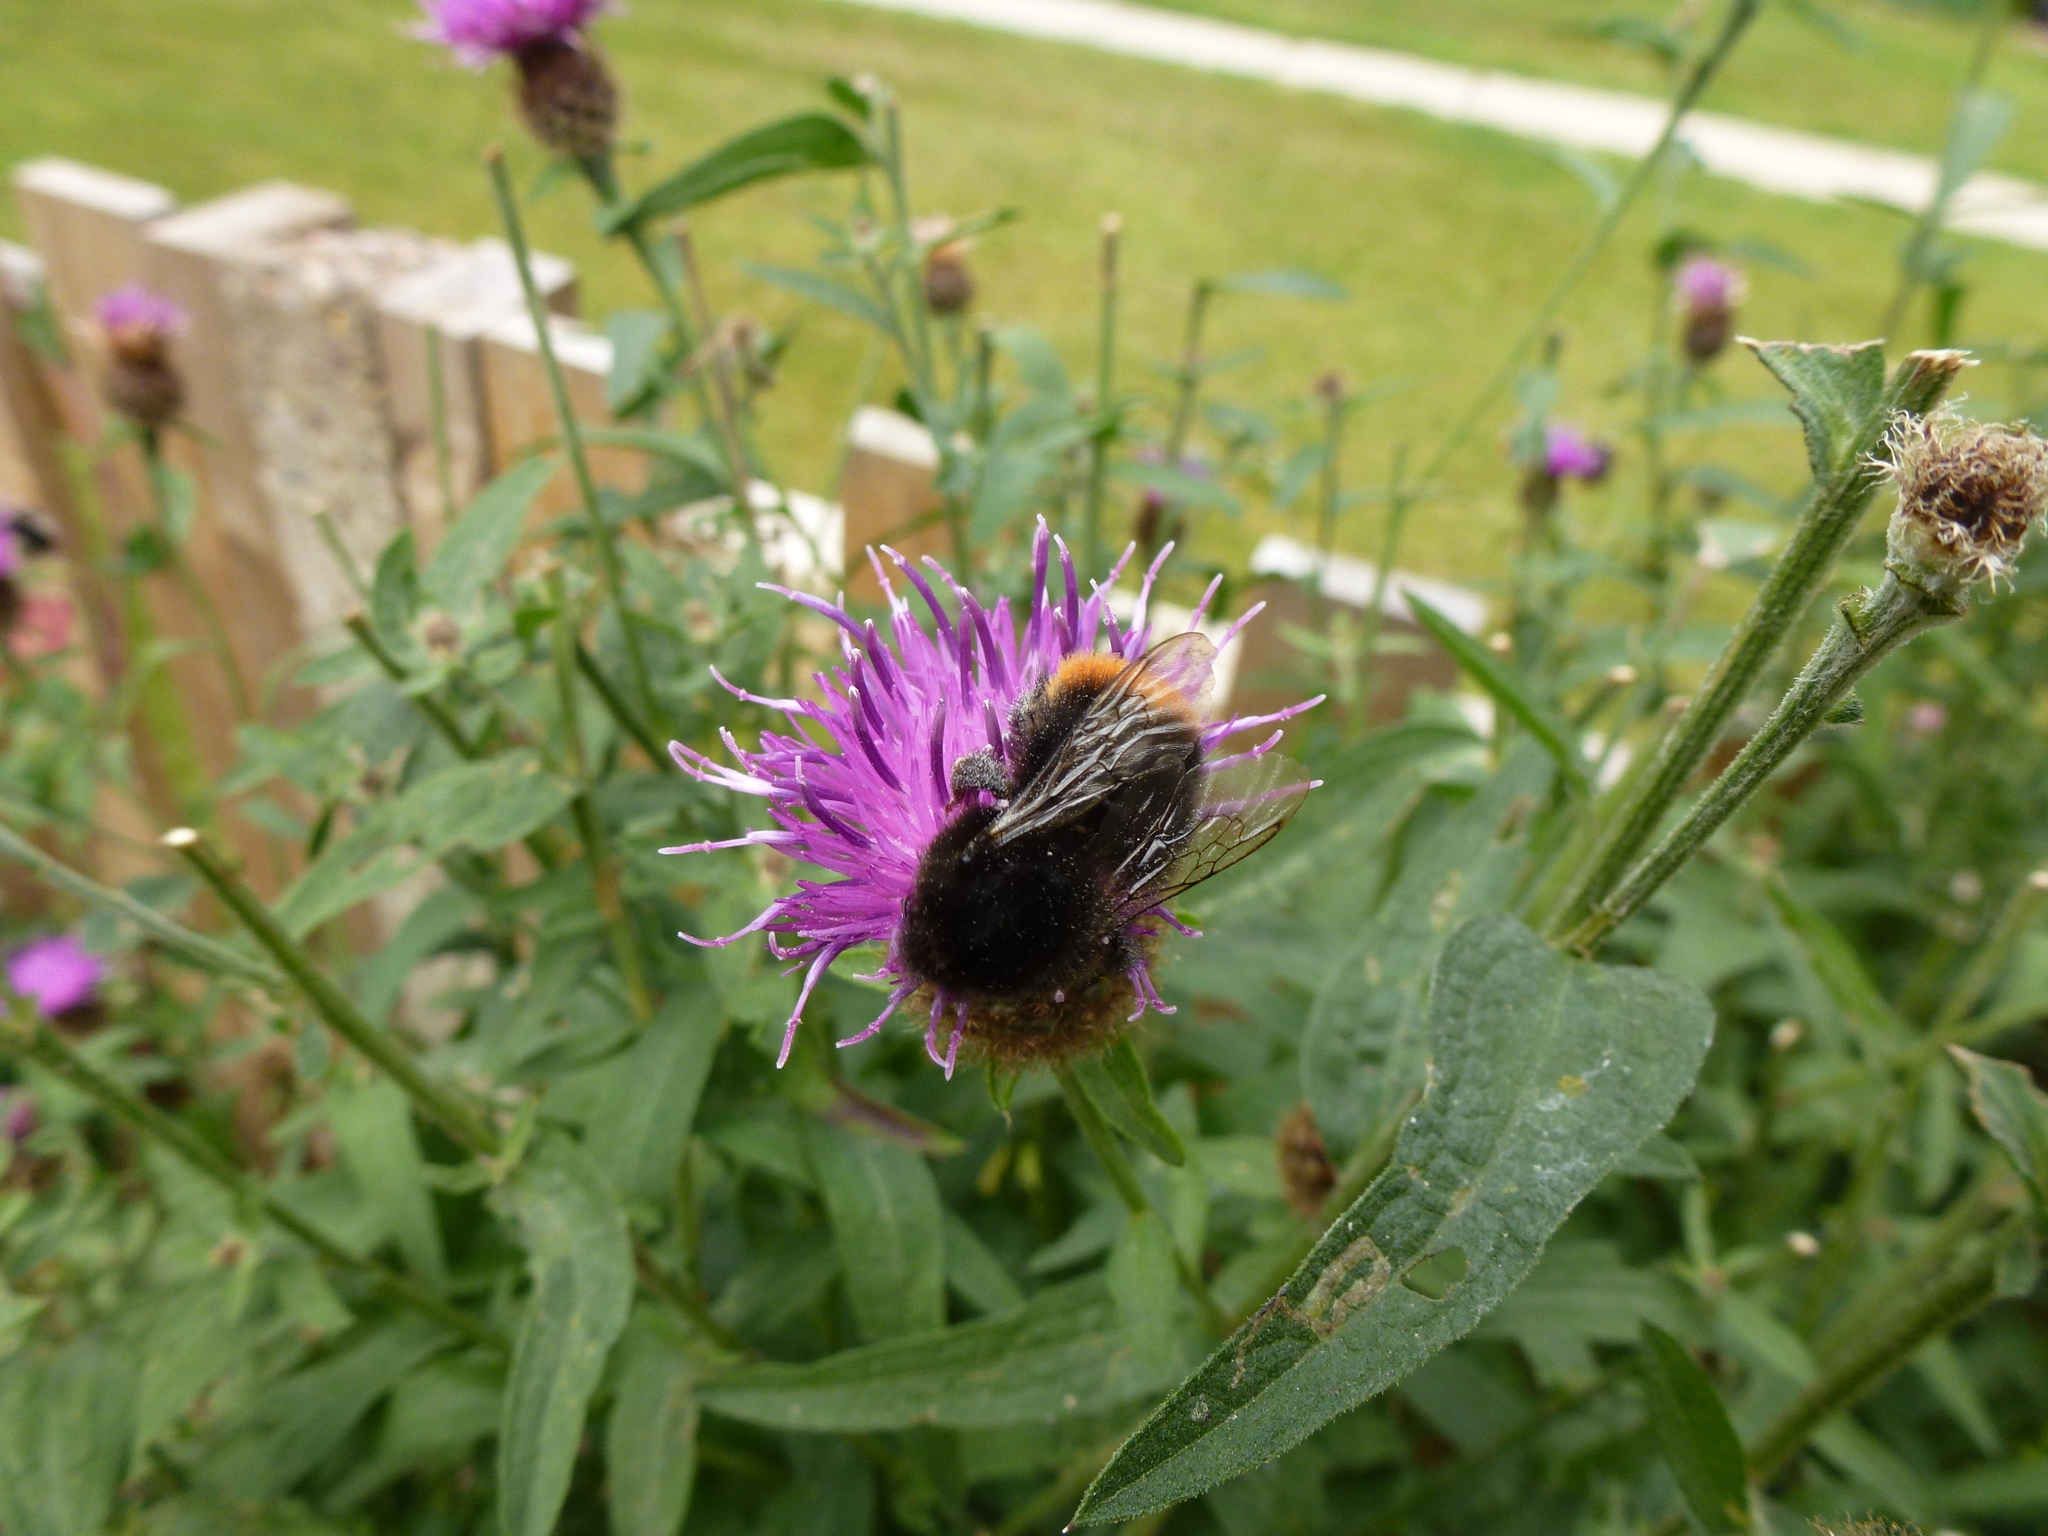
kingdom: Animalia
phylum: Arthropoda
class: Insecta
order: Hymenoptera
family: Apidae
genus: Bombus
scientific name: Bombus lapidarius
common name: Large red-tailed humble-bee
